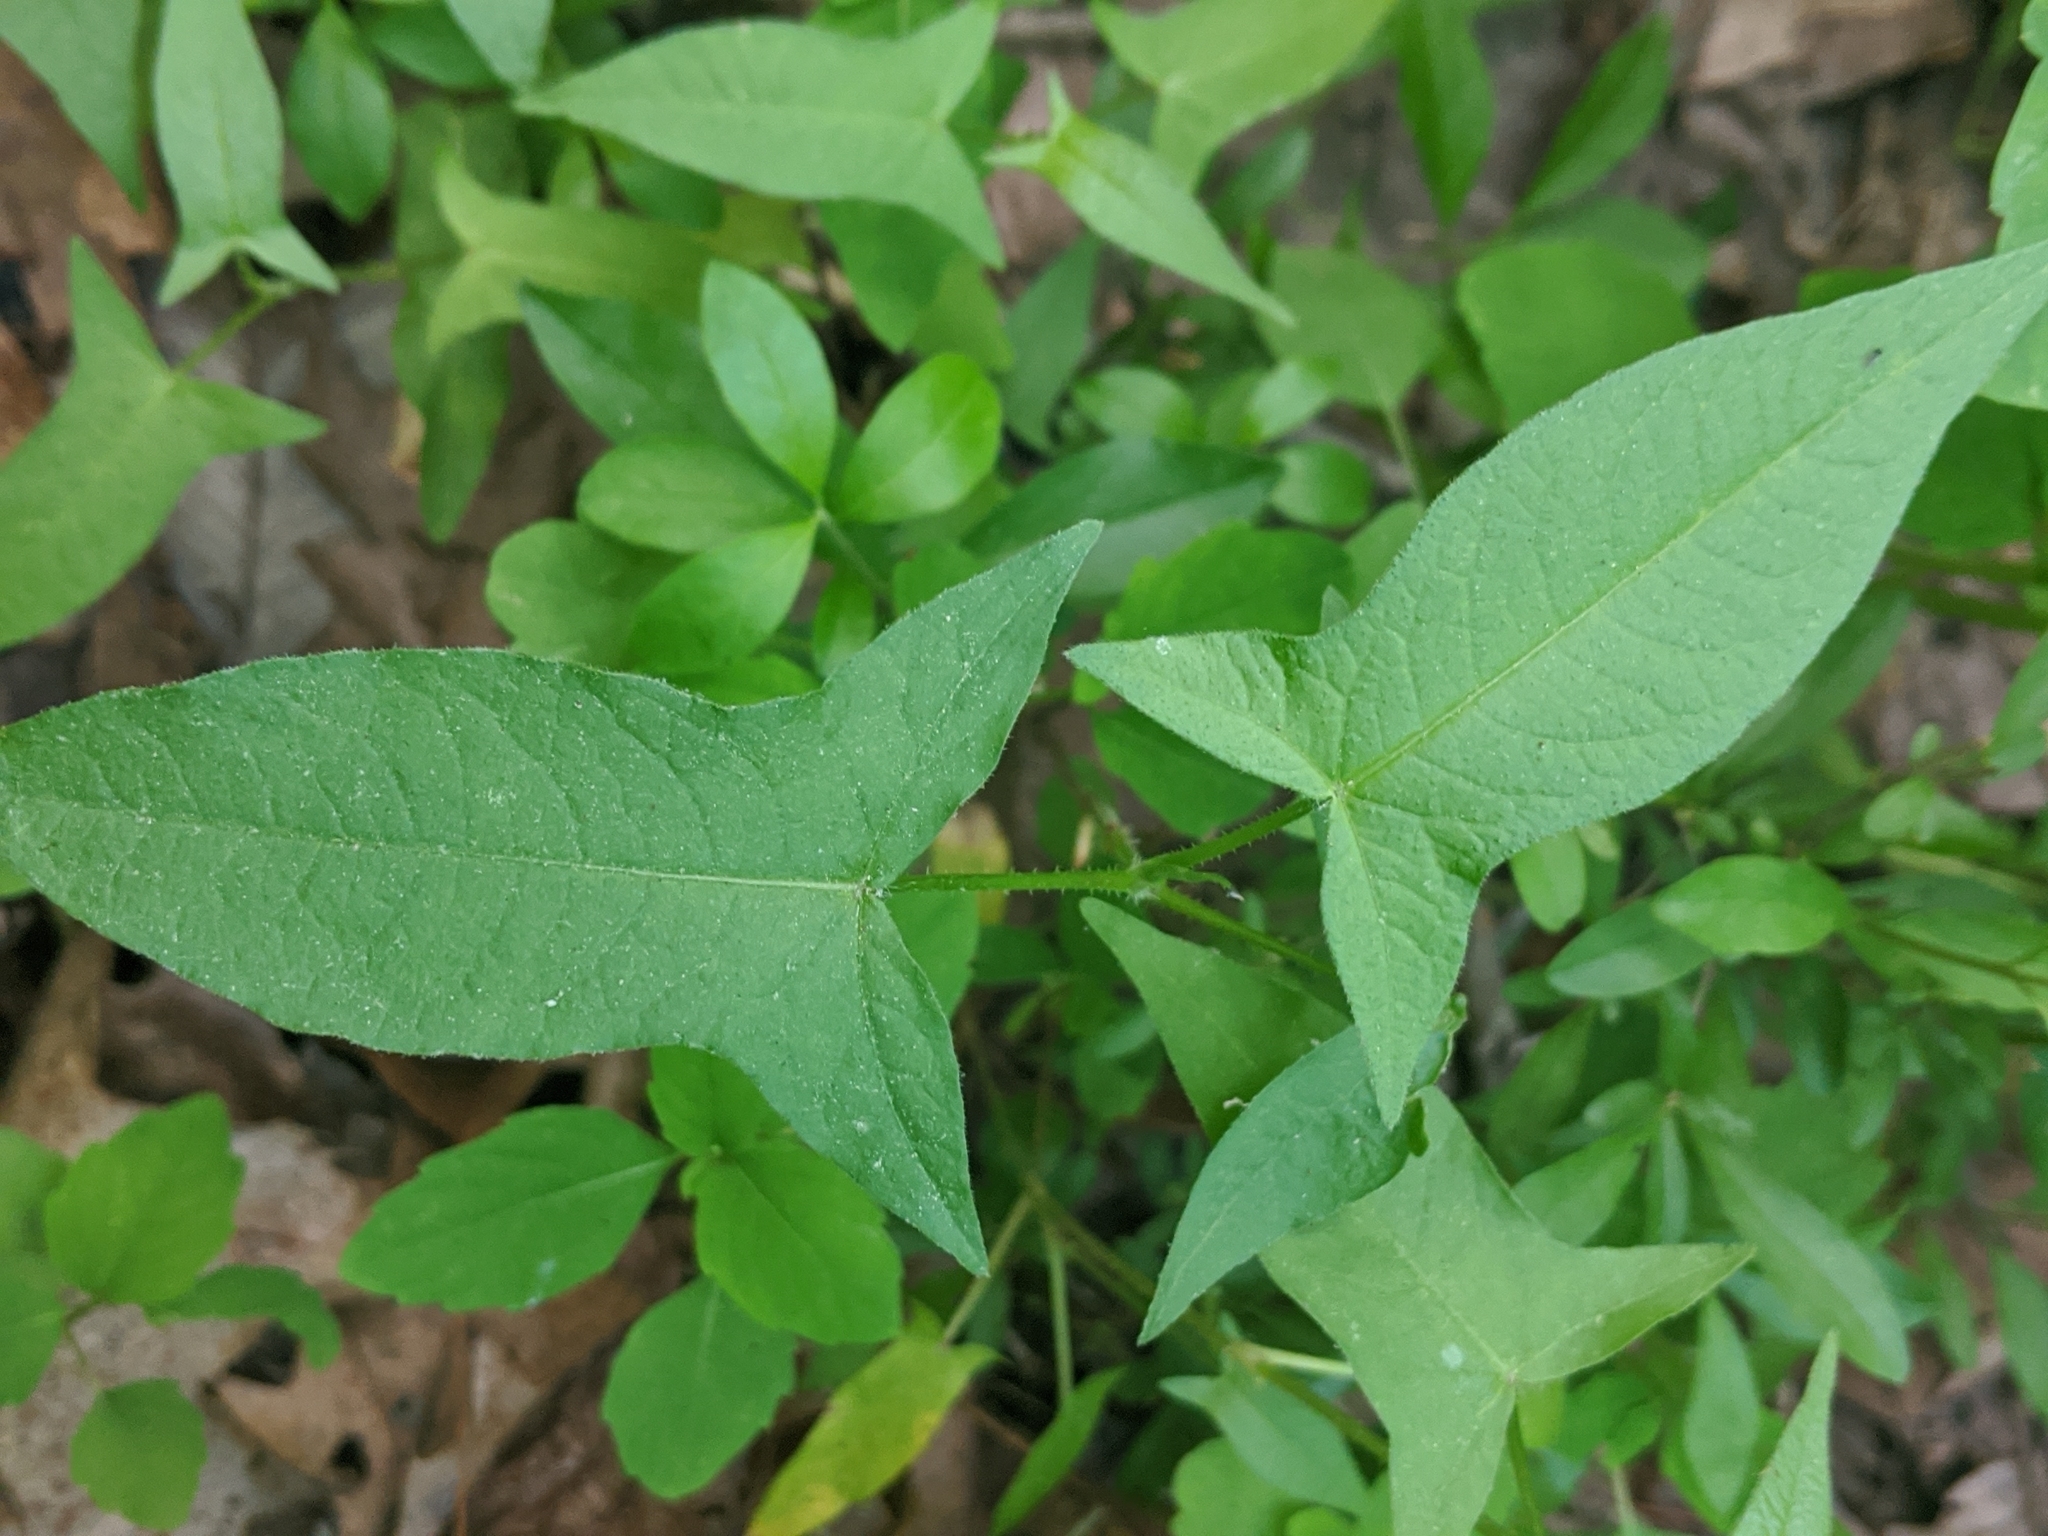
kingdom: Plantae
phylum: Tracheophyta
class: Magnoliopsida
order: Caryophyllales
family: Polygonaceae
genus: Persicaria
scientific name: Persicaria arifolia
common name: Halberd-leaved tear-thumb
